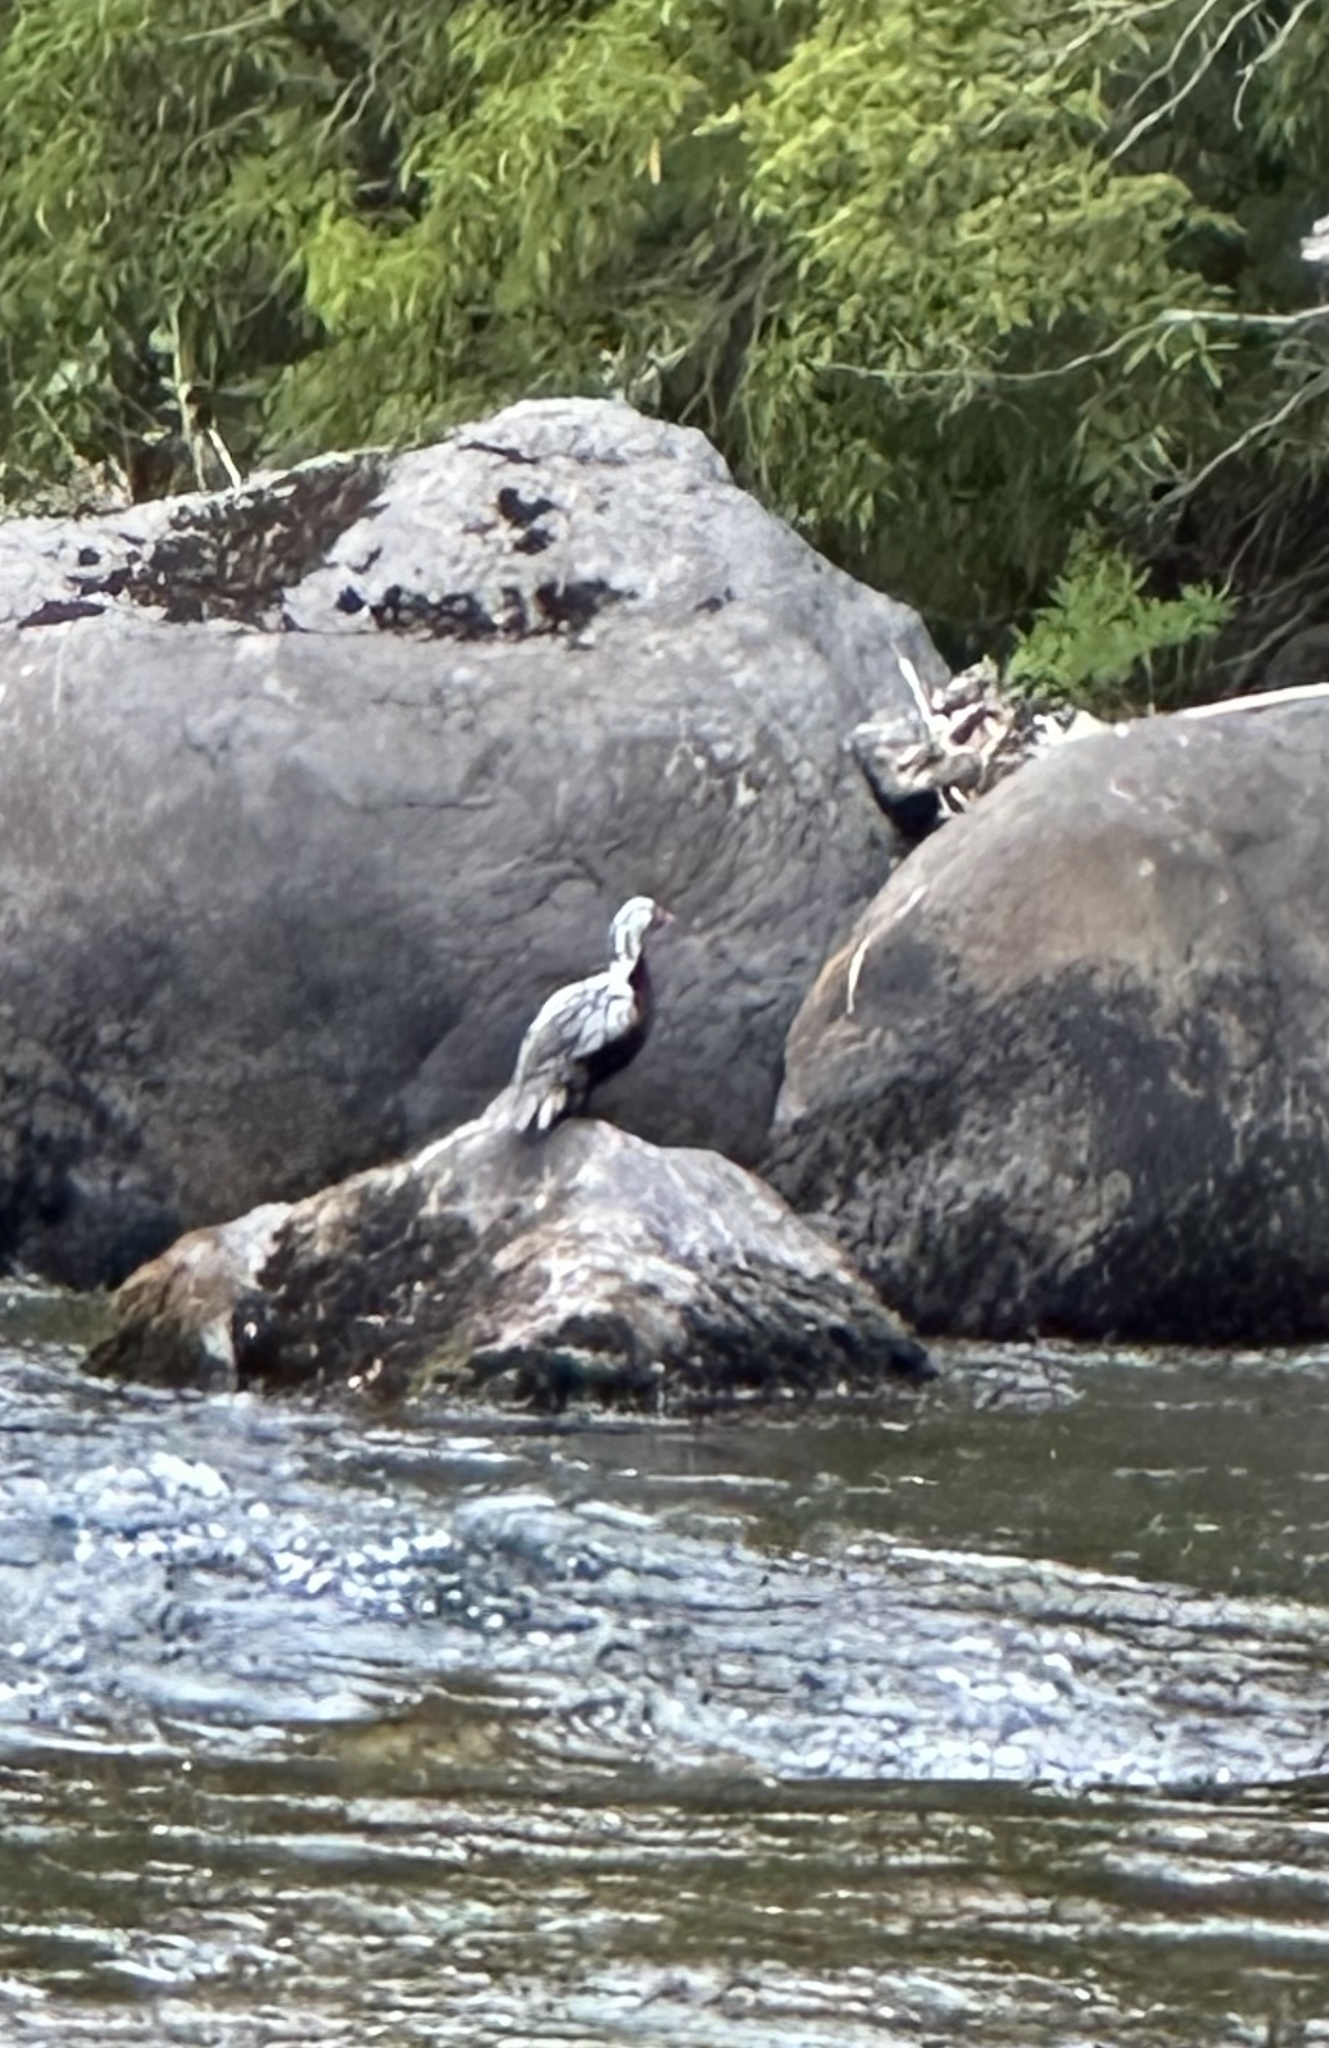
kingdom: Animalia
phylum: Chordata
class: Aves
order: Anseriformes
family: Anatidae
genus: Merganetta
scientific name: Merganetta armata
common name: Torrent duck
